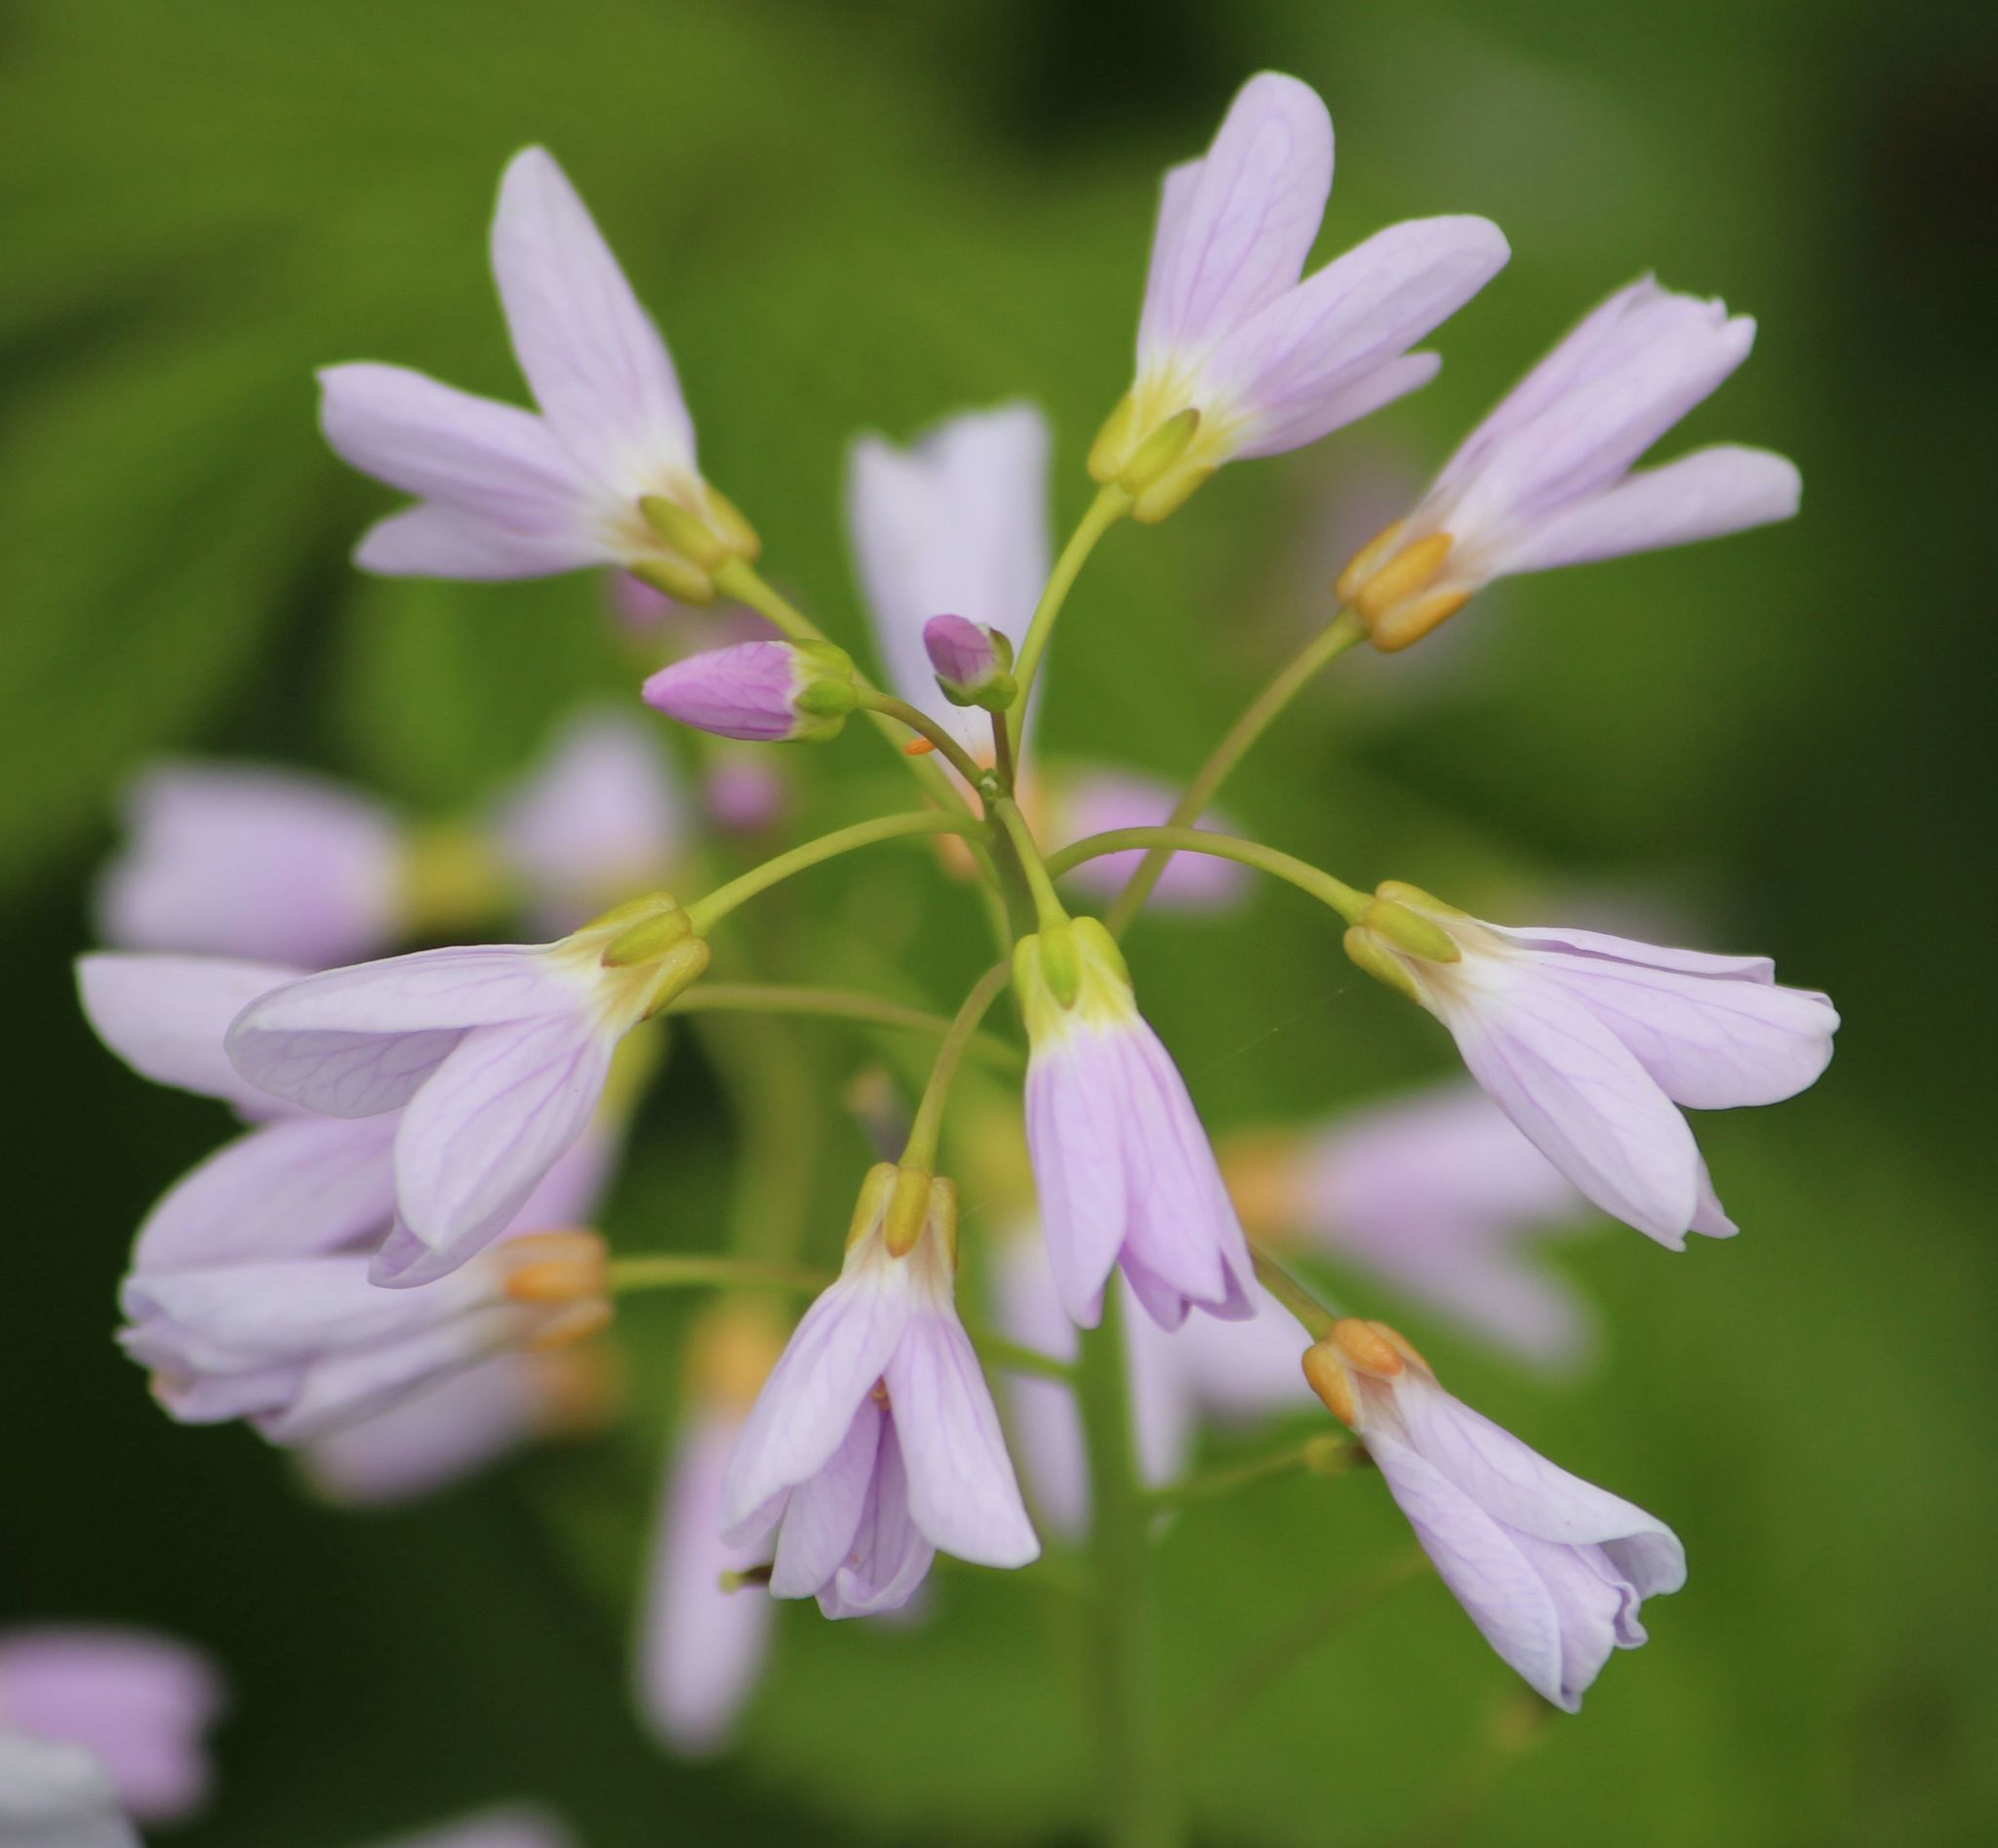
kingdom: Plantae
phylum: Tracheophyta
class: Magnoliopsida
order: Brassicales
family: Brassicaceae
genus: Cardamine
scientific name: Cardamine pratensis
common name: Cuckoo flower
